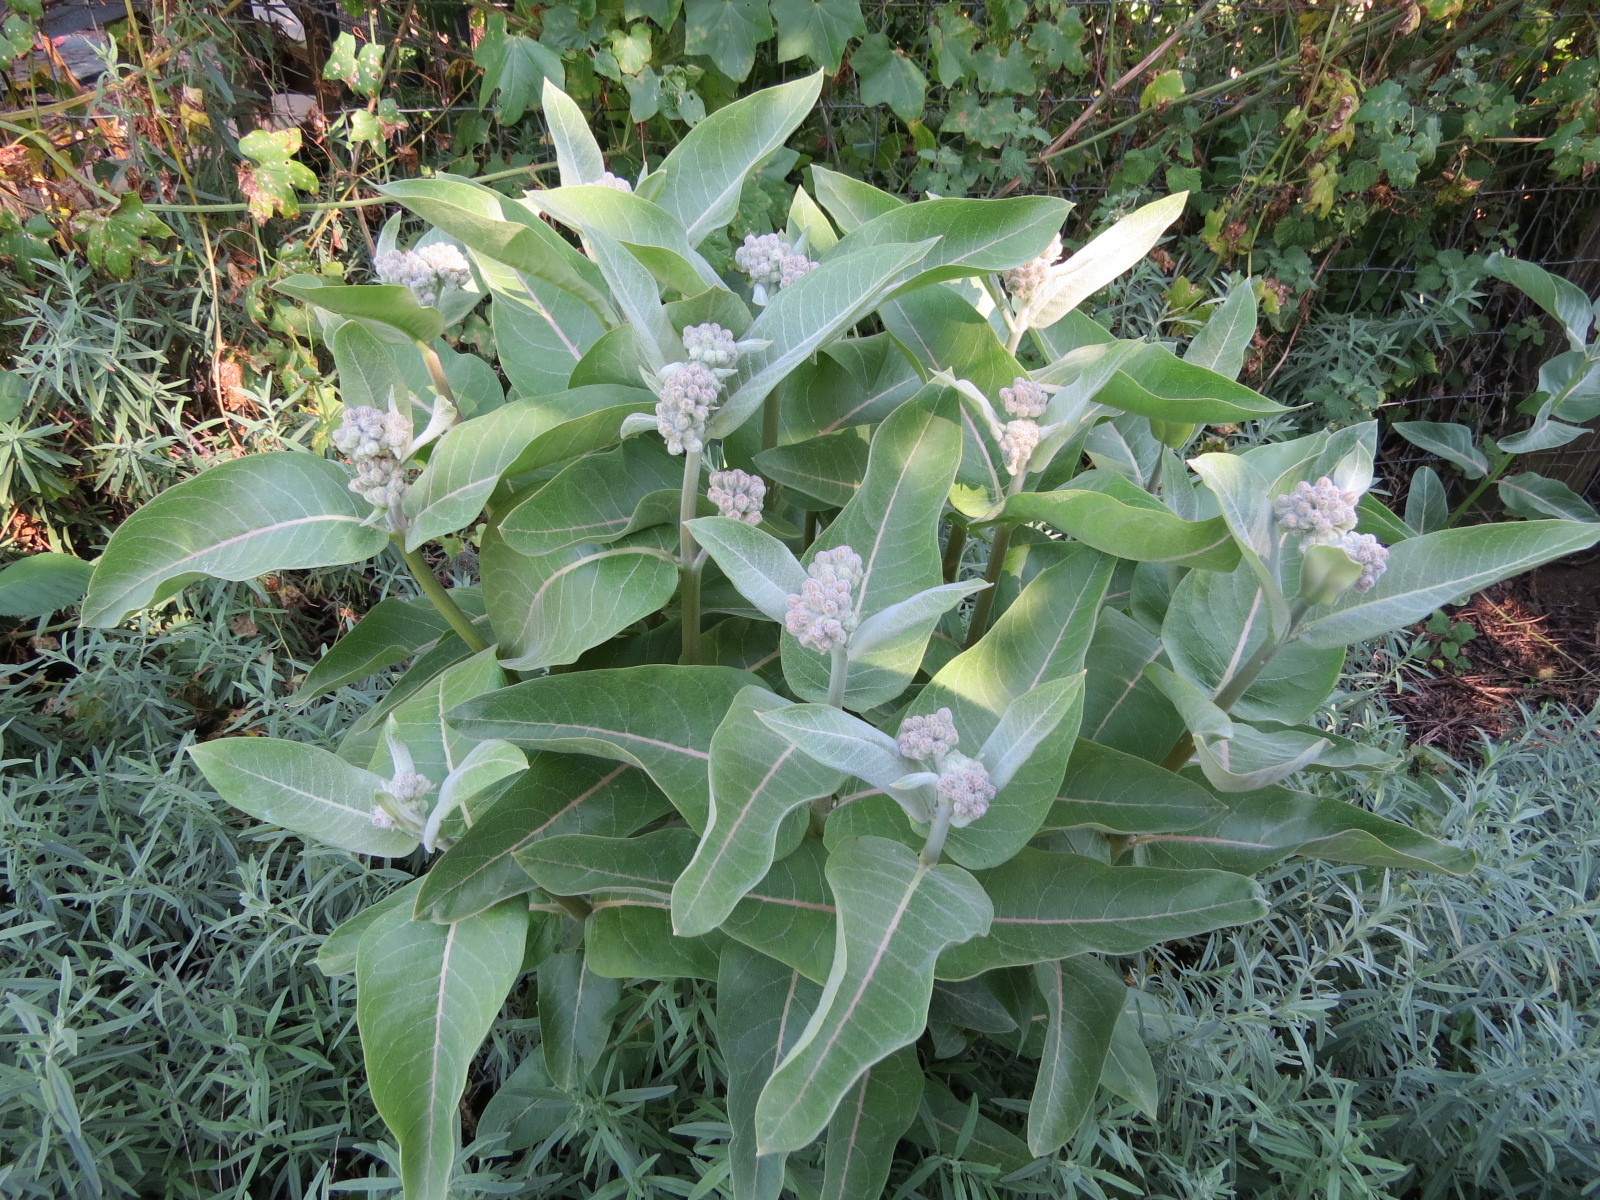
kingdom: Plantae
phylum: Tracheophyta
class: Magnoliopsida
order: Gentianales
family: Apocynaceae
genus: Asclepias
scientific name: Asclepias speciosa
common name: Showy milkweed
